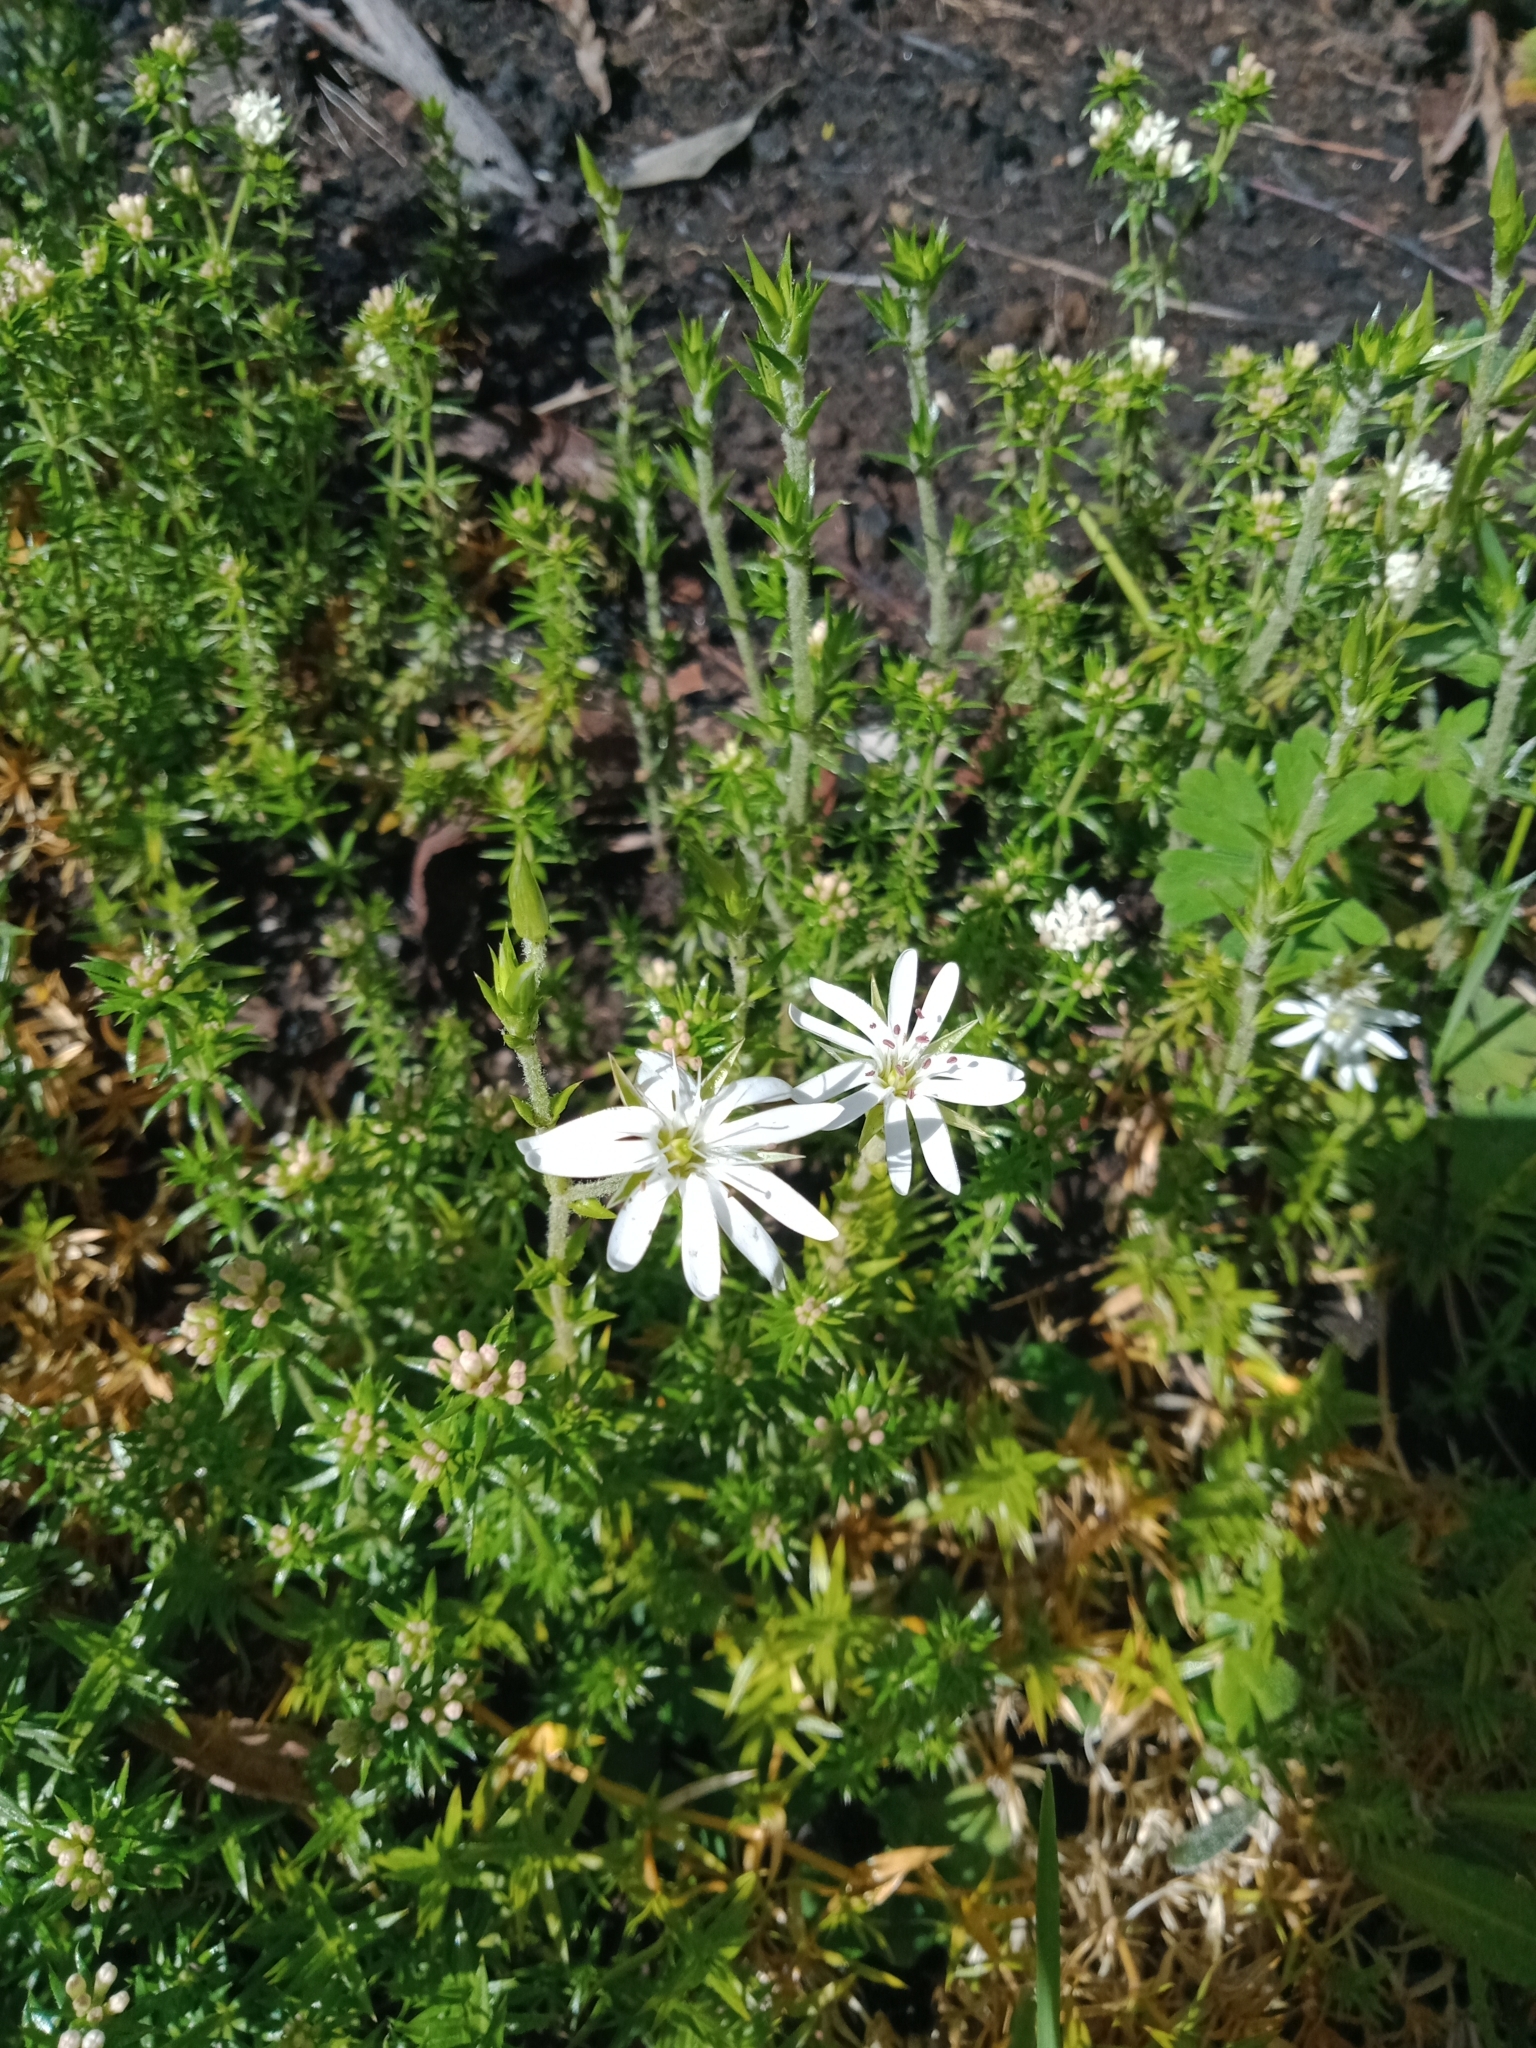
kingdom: Plantae
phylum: Tracheophyta
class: Magnoliopsida
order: Caryophyllales
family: Caryophyllaceae
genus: Stellaria
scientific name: Stellaria pungens
